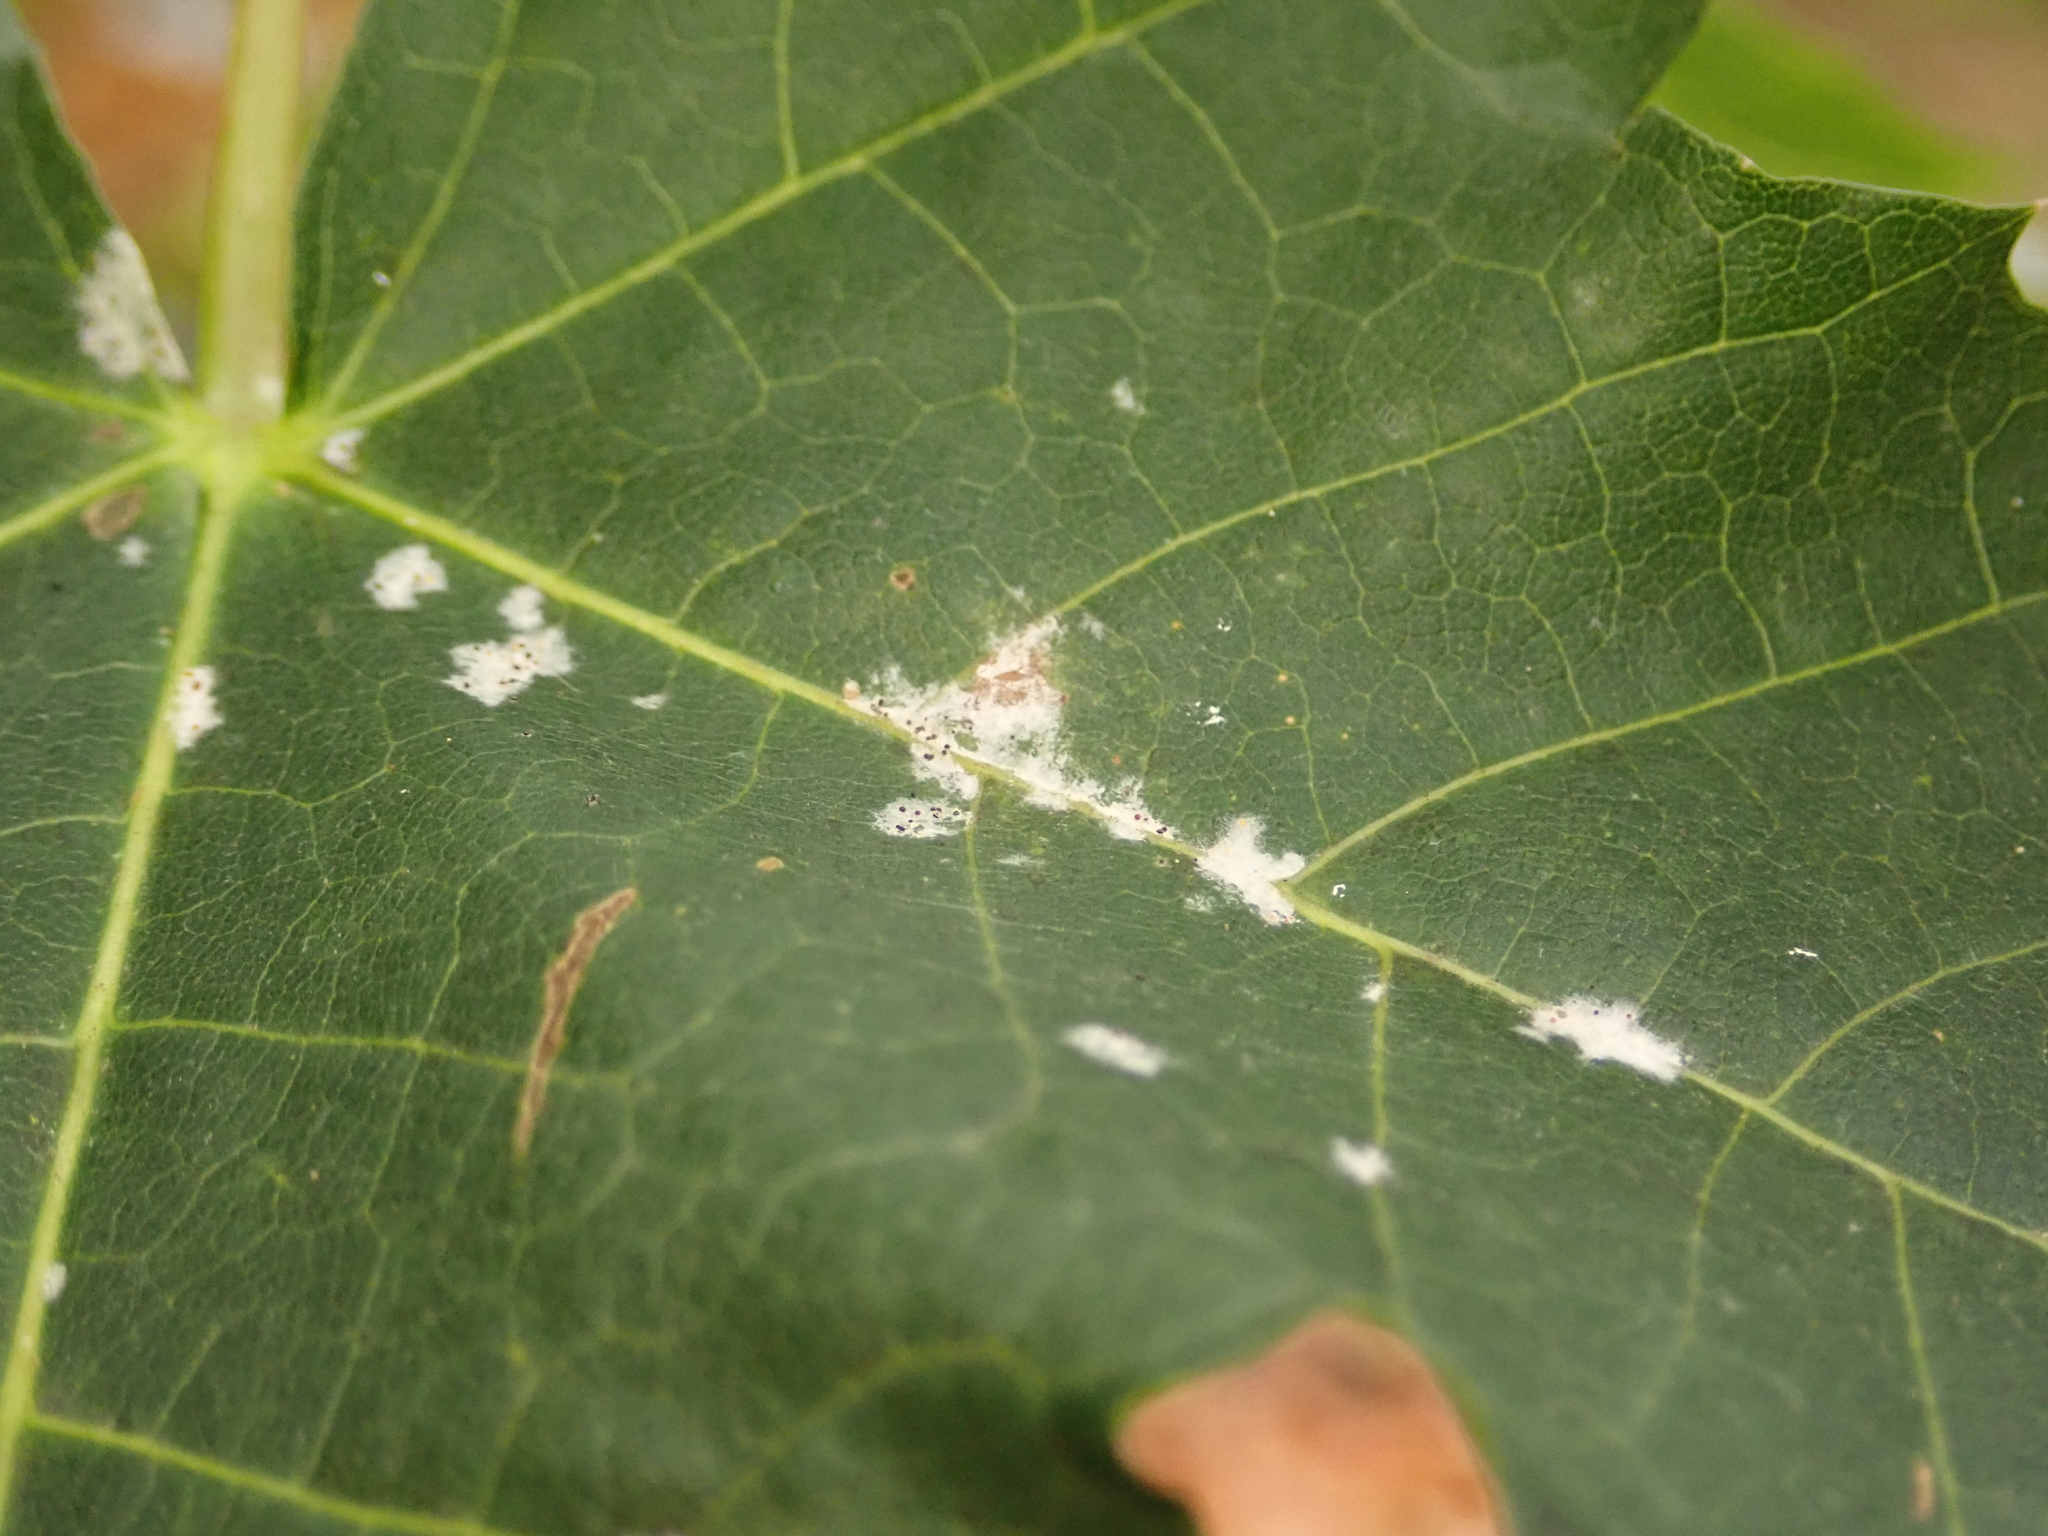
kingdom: Fungi
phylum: Ascomycota
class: Leotiomycetes
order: Helotiales
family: Erysiphaceae
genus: Sawadaea
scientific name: Sawadaea tulasnei
